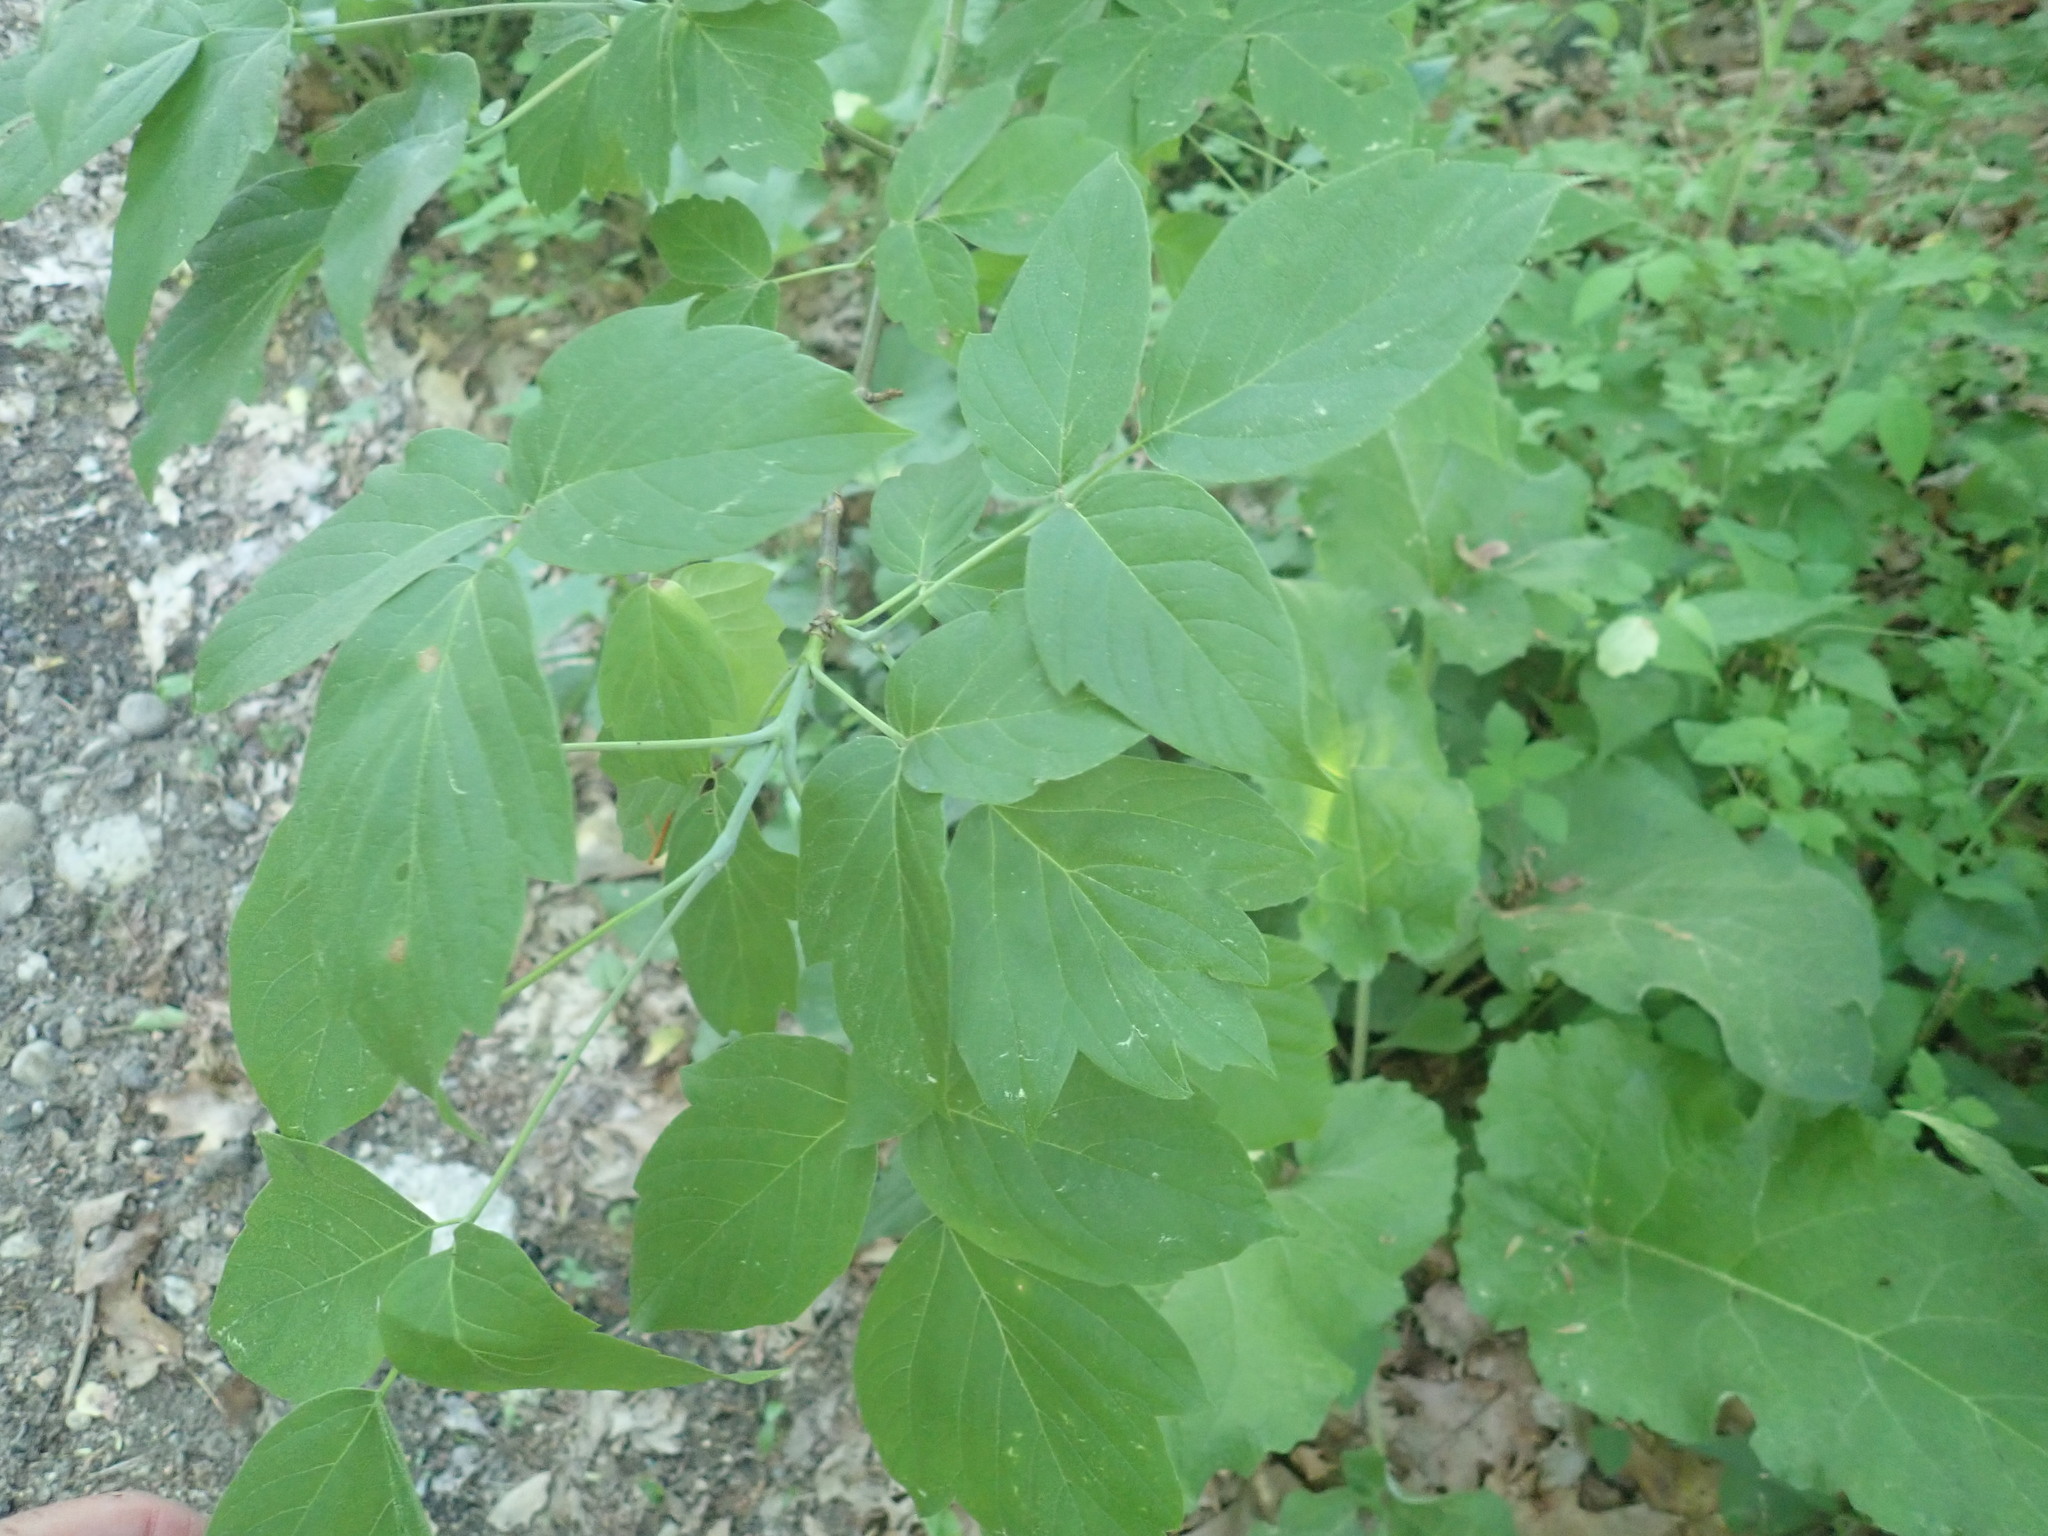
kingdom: Plantae
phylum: Tracheophyta
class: Magnoliopsida
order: Sapindales
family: Sapindaceae
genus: Acer
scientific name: Acer negundo
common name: Ashleaf maple
